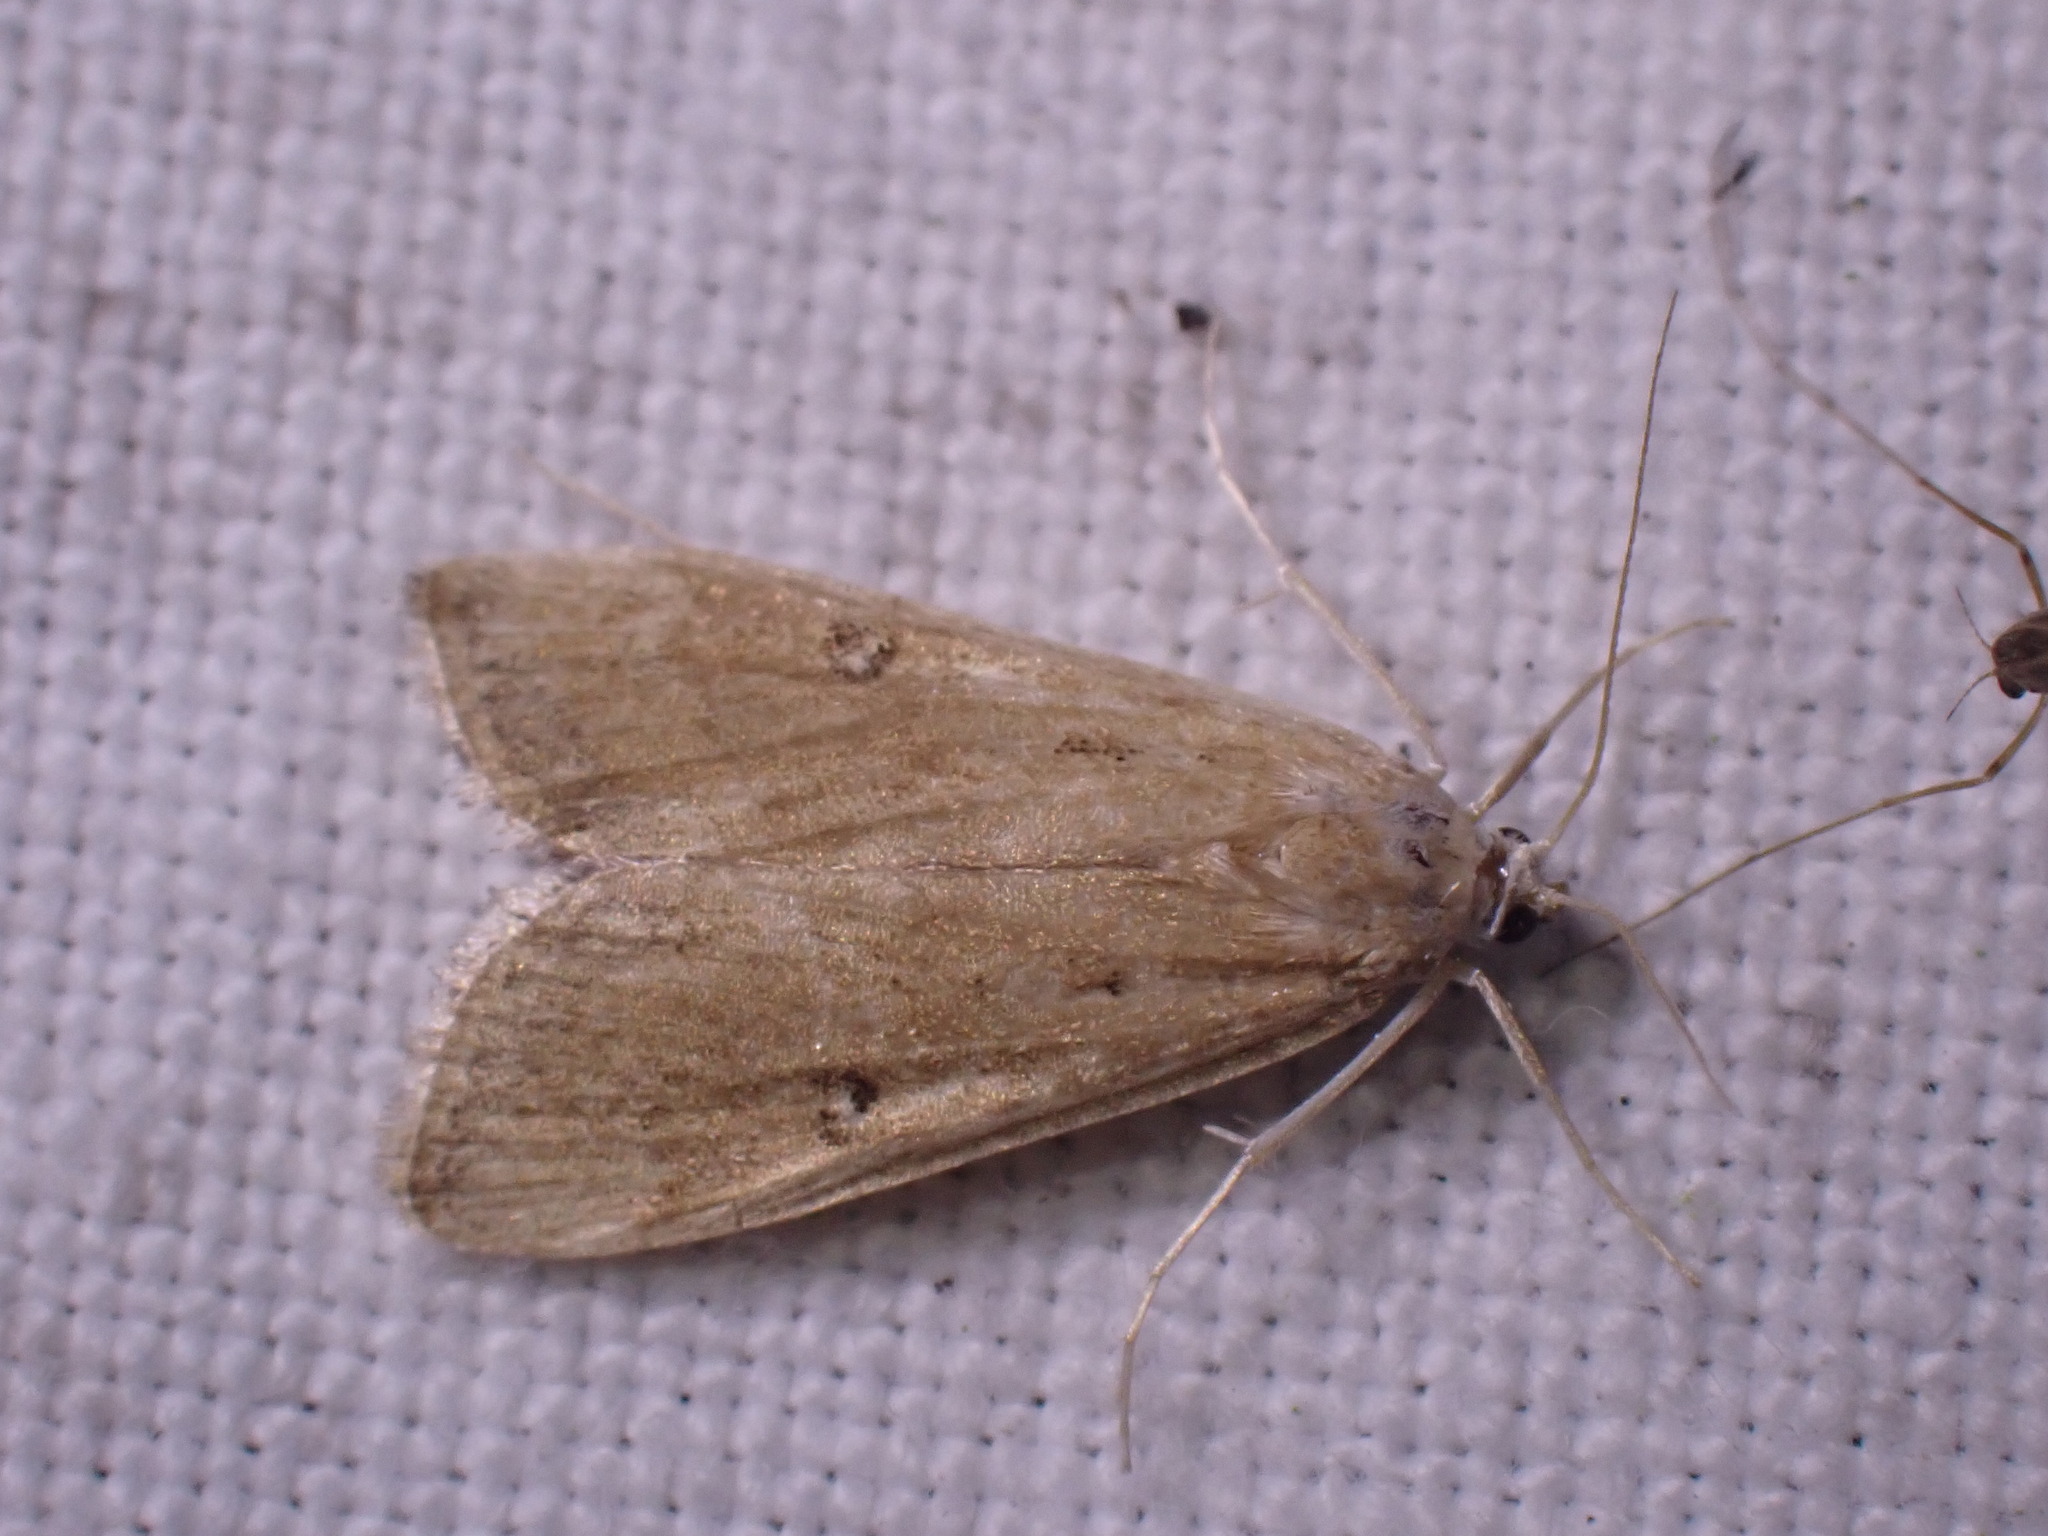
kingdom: Animalia
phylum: Arthropoda
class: Insecta
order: Lepidoptera
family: Crambidae
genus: Parapoynx
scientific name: Parapoynx stratiotata
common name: Ringed china-mark
